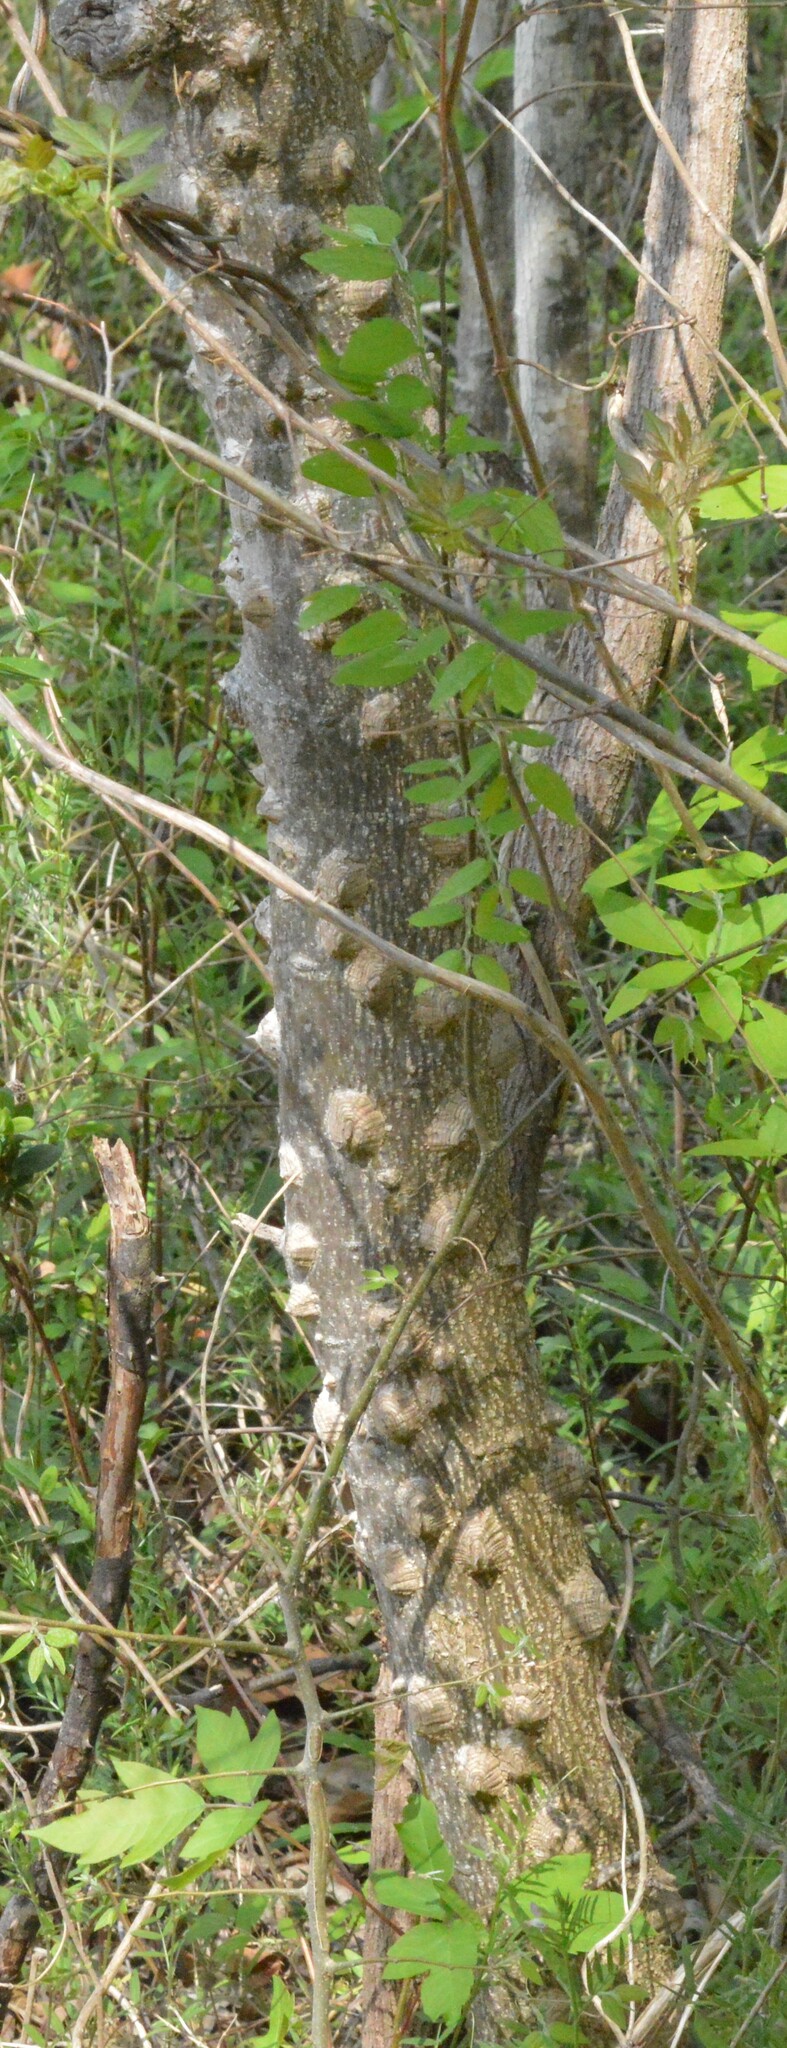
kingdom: Plantae
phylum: Tracheophyta
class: Magnoliopsida
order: Sapindales
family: Rutaceae
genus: Zanthoxylum
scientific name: Zanthoxylum clava-herculis
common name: Hercules'-club
